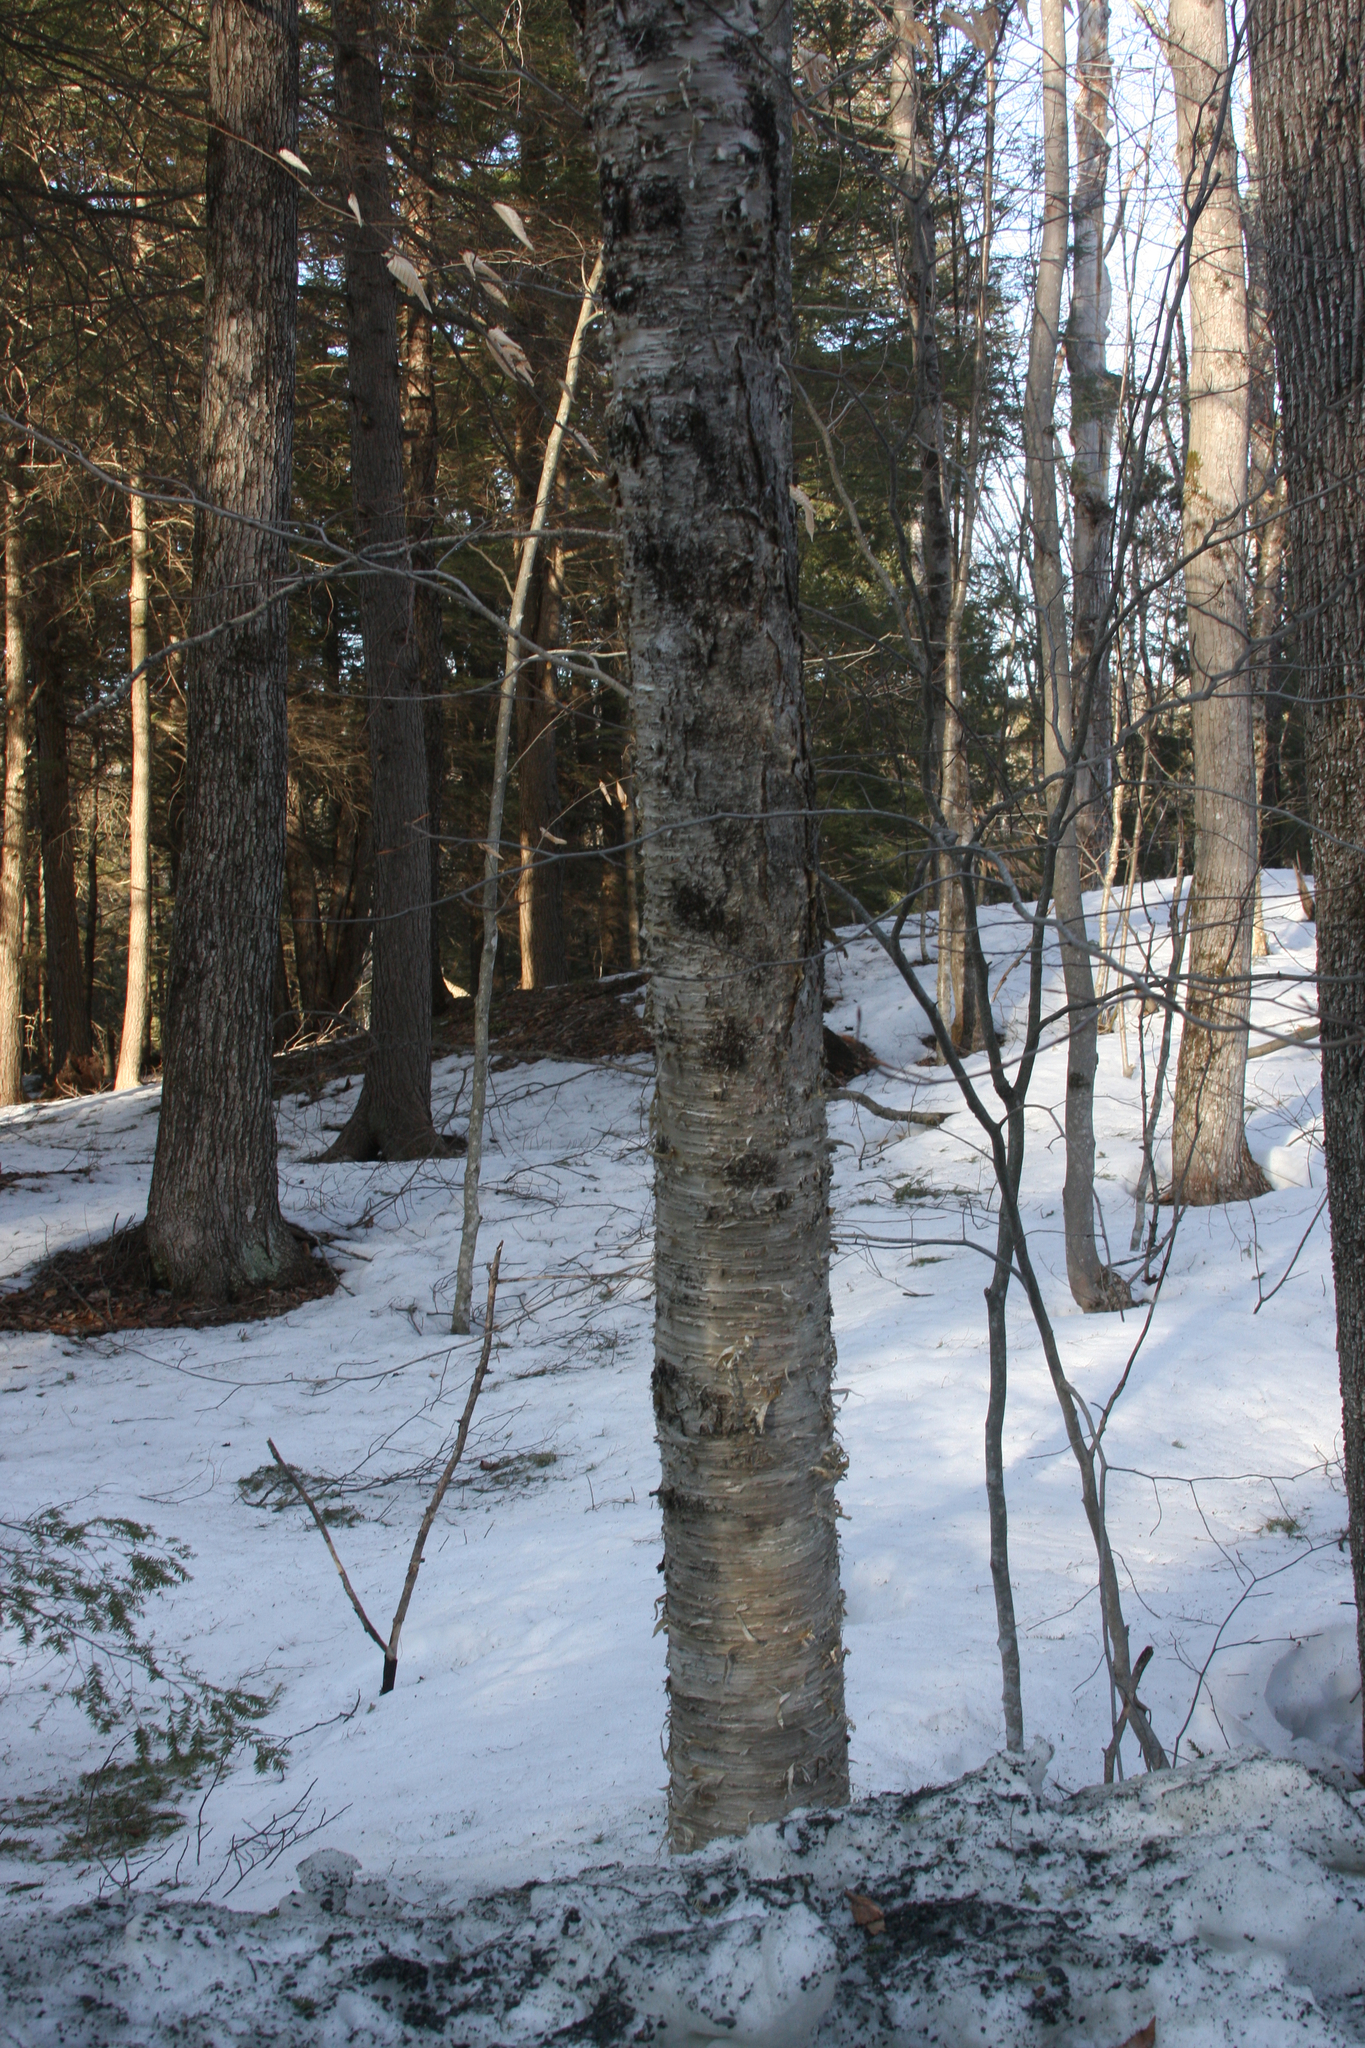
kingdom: Plantae
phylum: Tracheophyta
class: Magnoliopsida
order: Fagales
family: Betulaceae
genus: Betula
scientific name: Betula alleghaniensis
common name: Yellow birch
